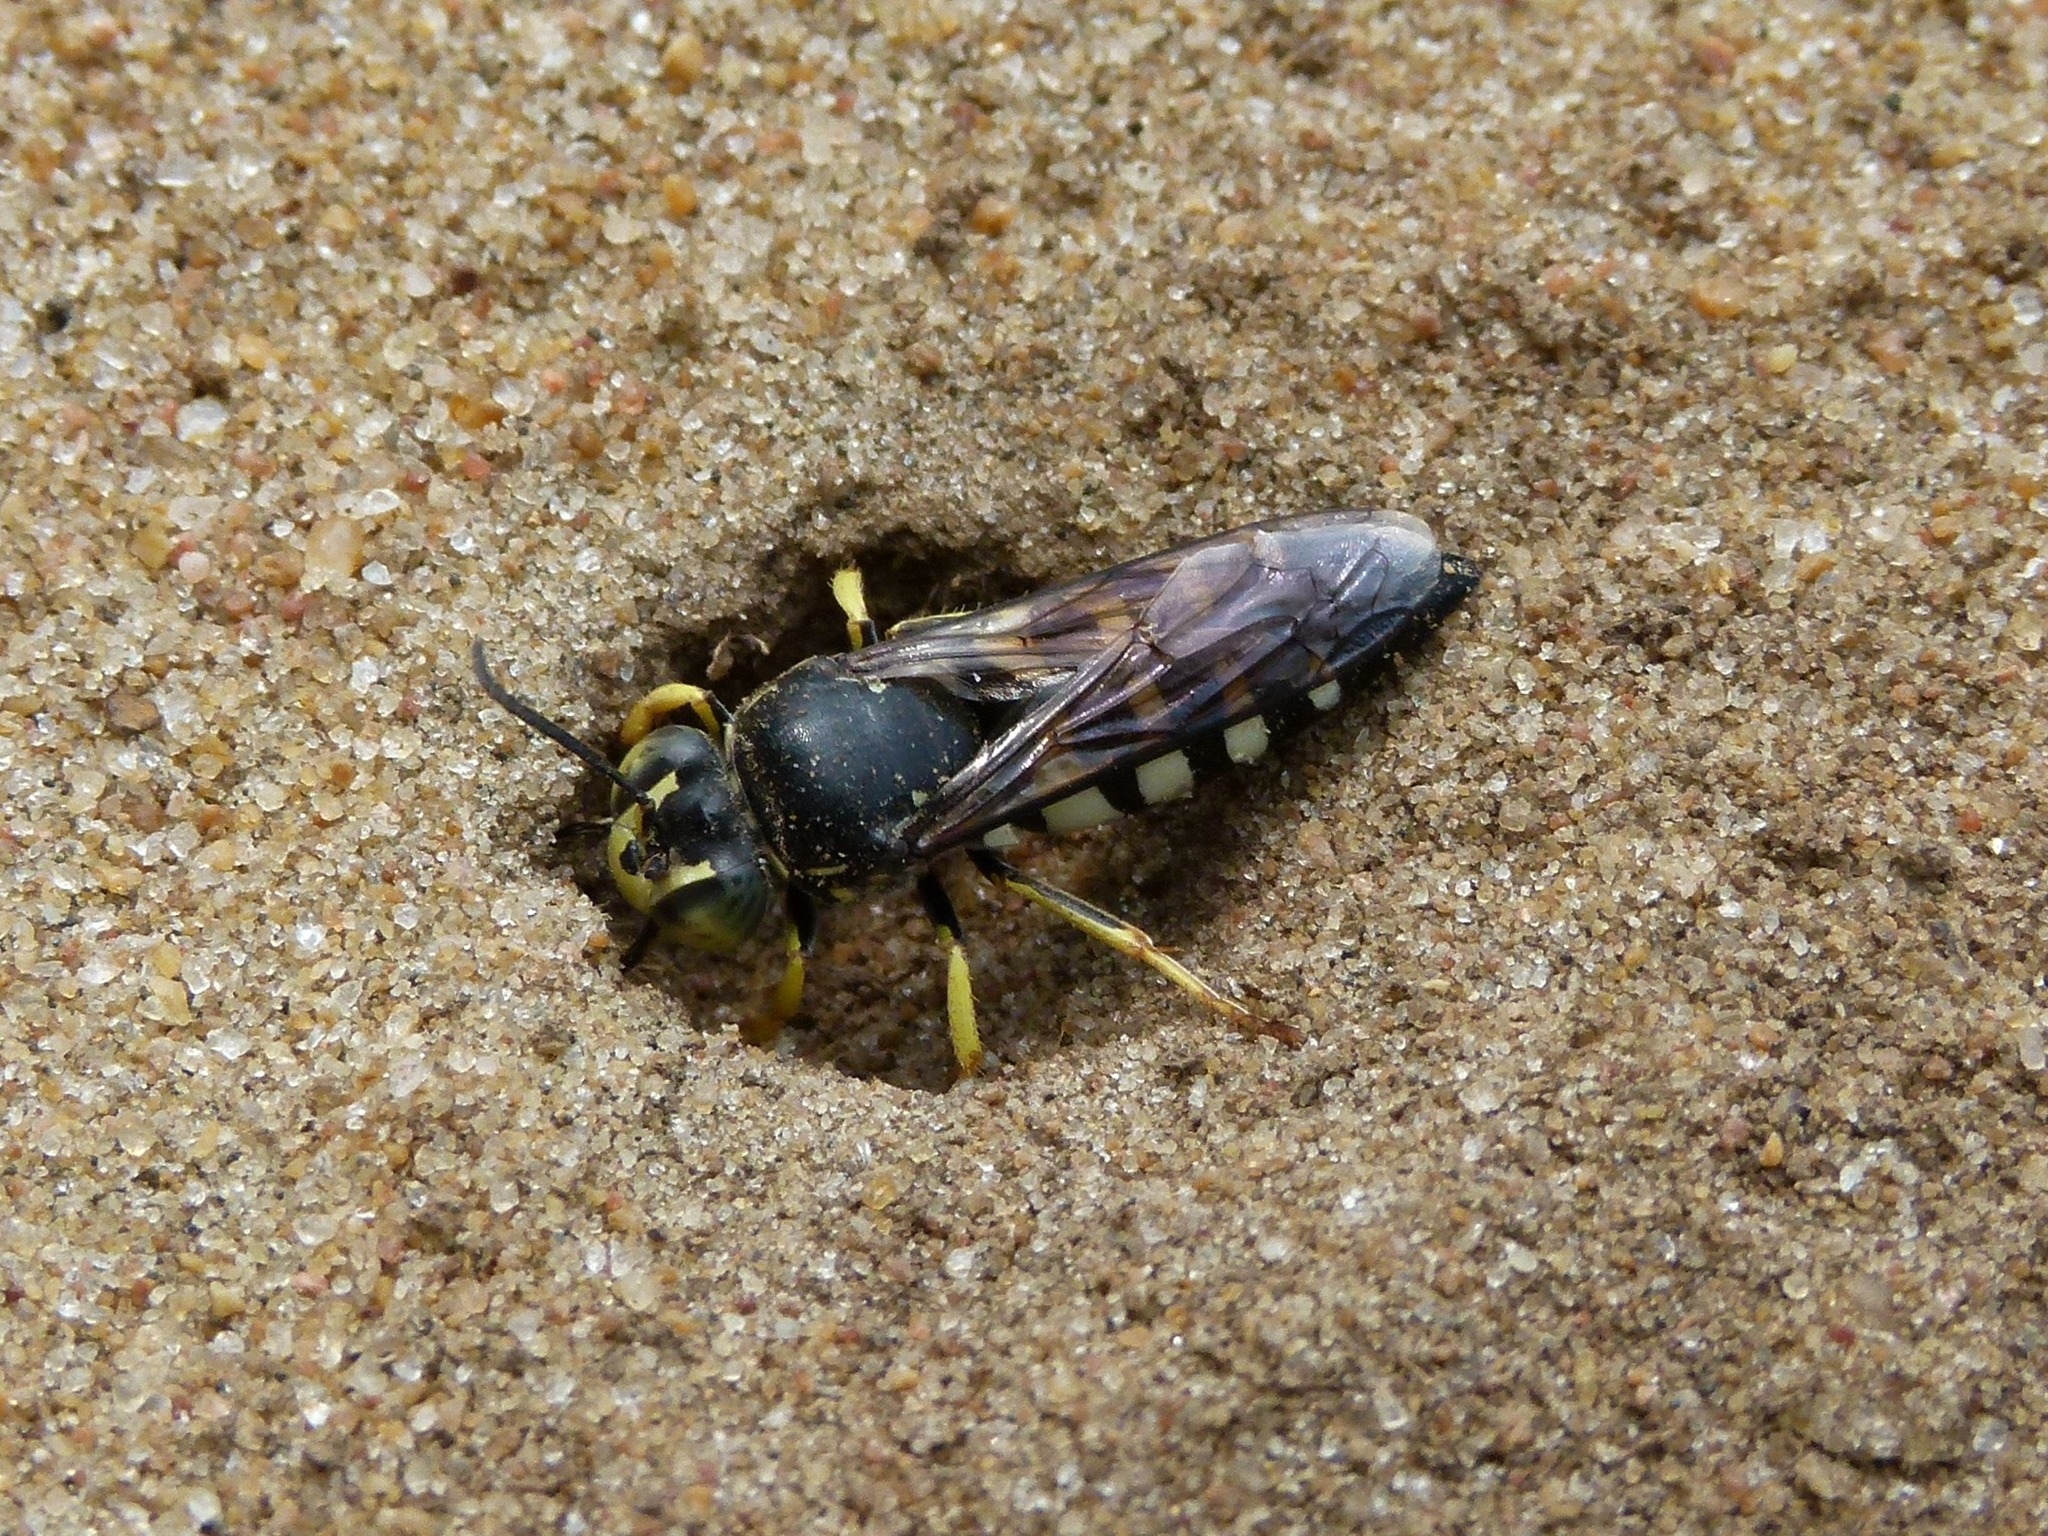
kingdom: Animalia
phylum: Arthropoda
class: Insecta
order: Hymenoptera
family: Crabronidae
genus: Bicyrtes
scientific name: Bicyrtes quadrifasciatus
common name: Four-banded stink bug hunter wasp
